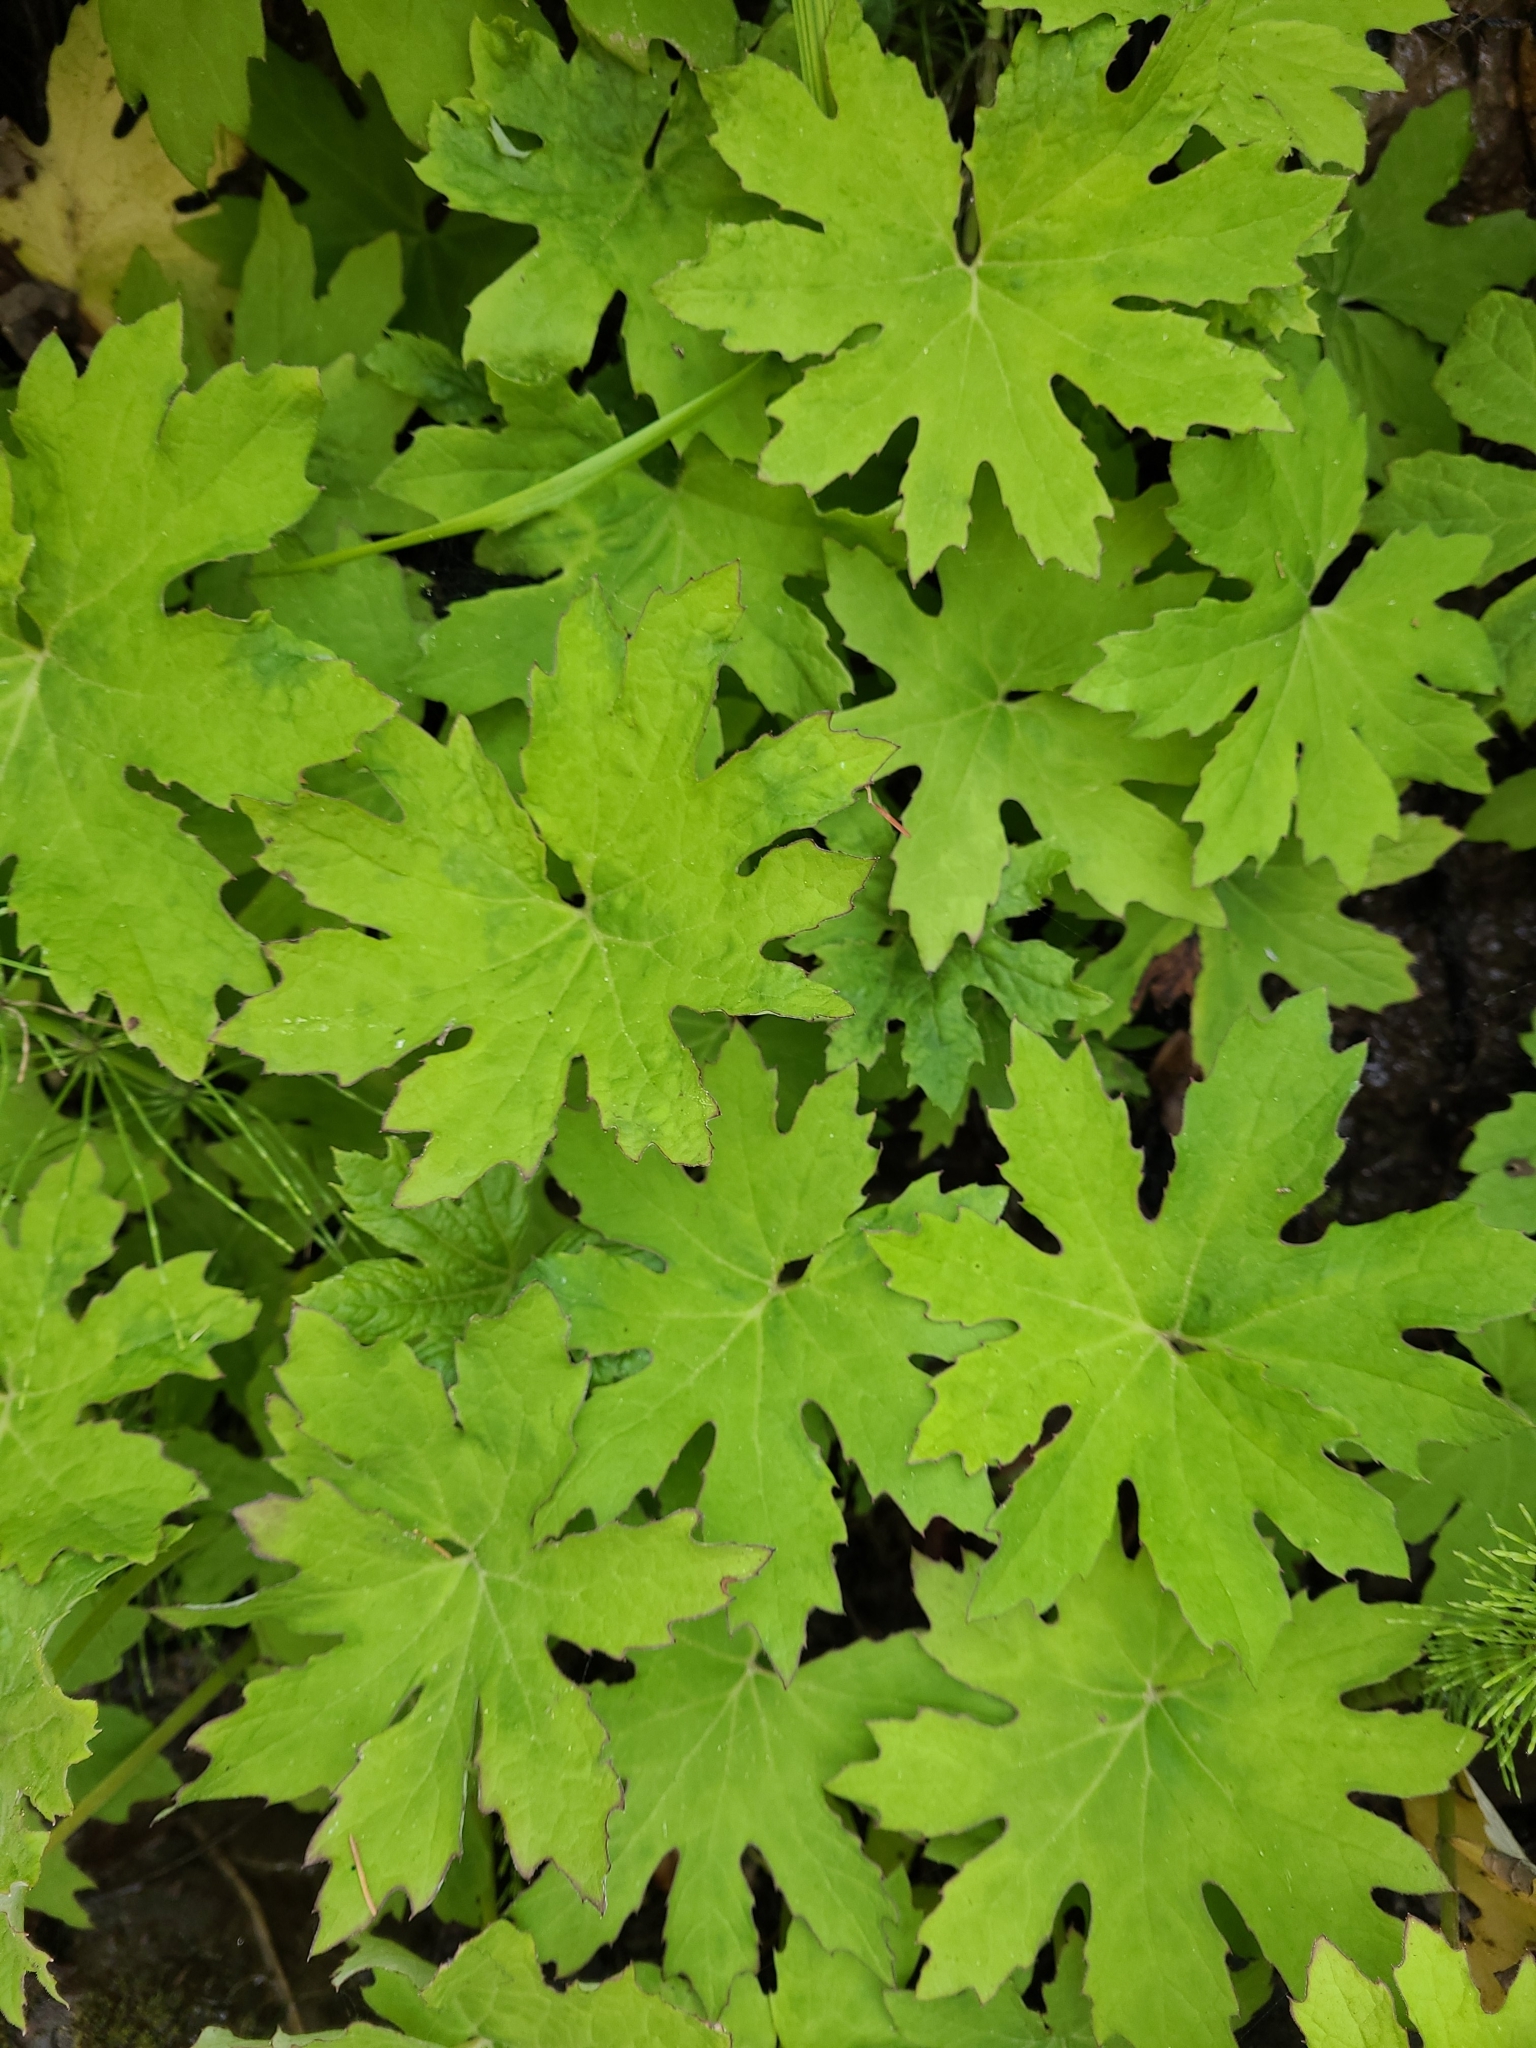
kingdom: Plantae
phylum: Tracheophyta
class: Magnoliopsida
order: Asterales
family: Asteraceae
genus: Petasites
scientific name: Petasites frigidus
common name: Arctic butterbur
